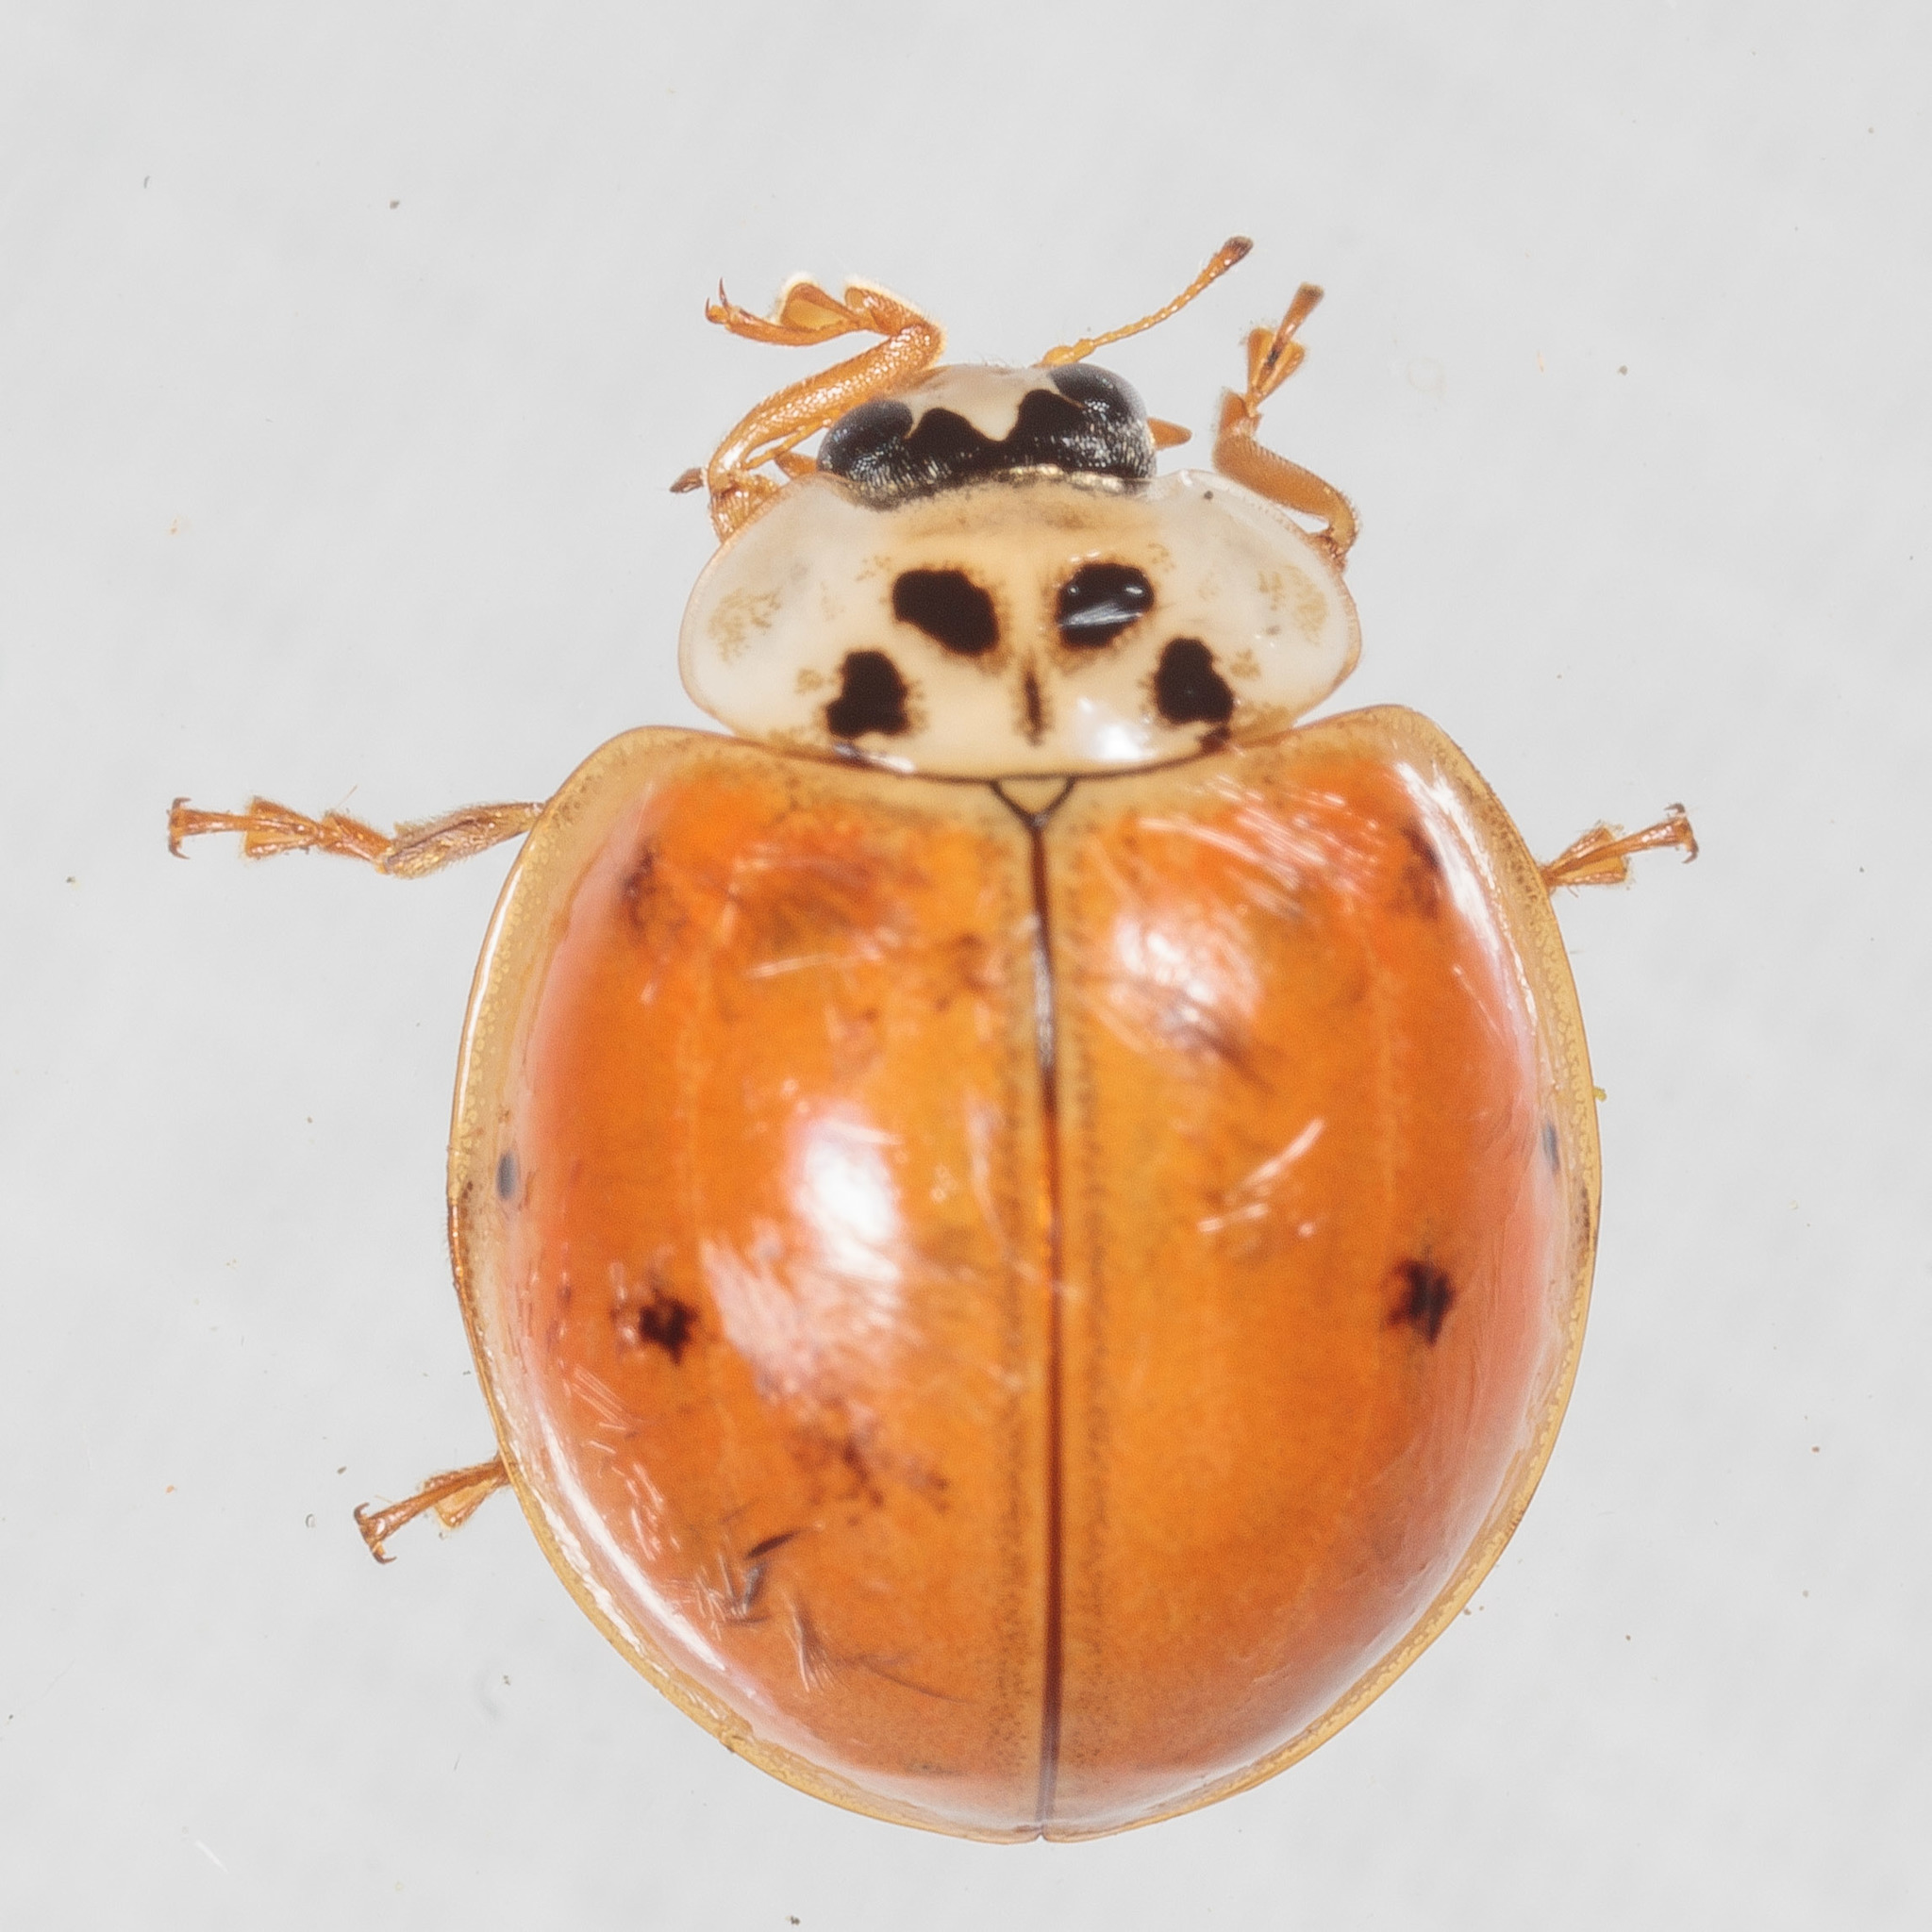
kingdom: Animalia
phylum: Arthropoda
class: Insecta
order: Coleoptera
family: Coccinellidae
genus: Harmonia
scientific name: Harmonia axyridis
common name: Harlequin ladybird
